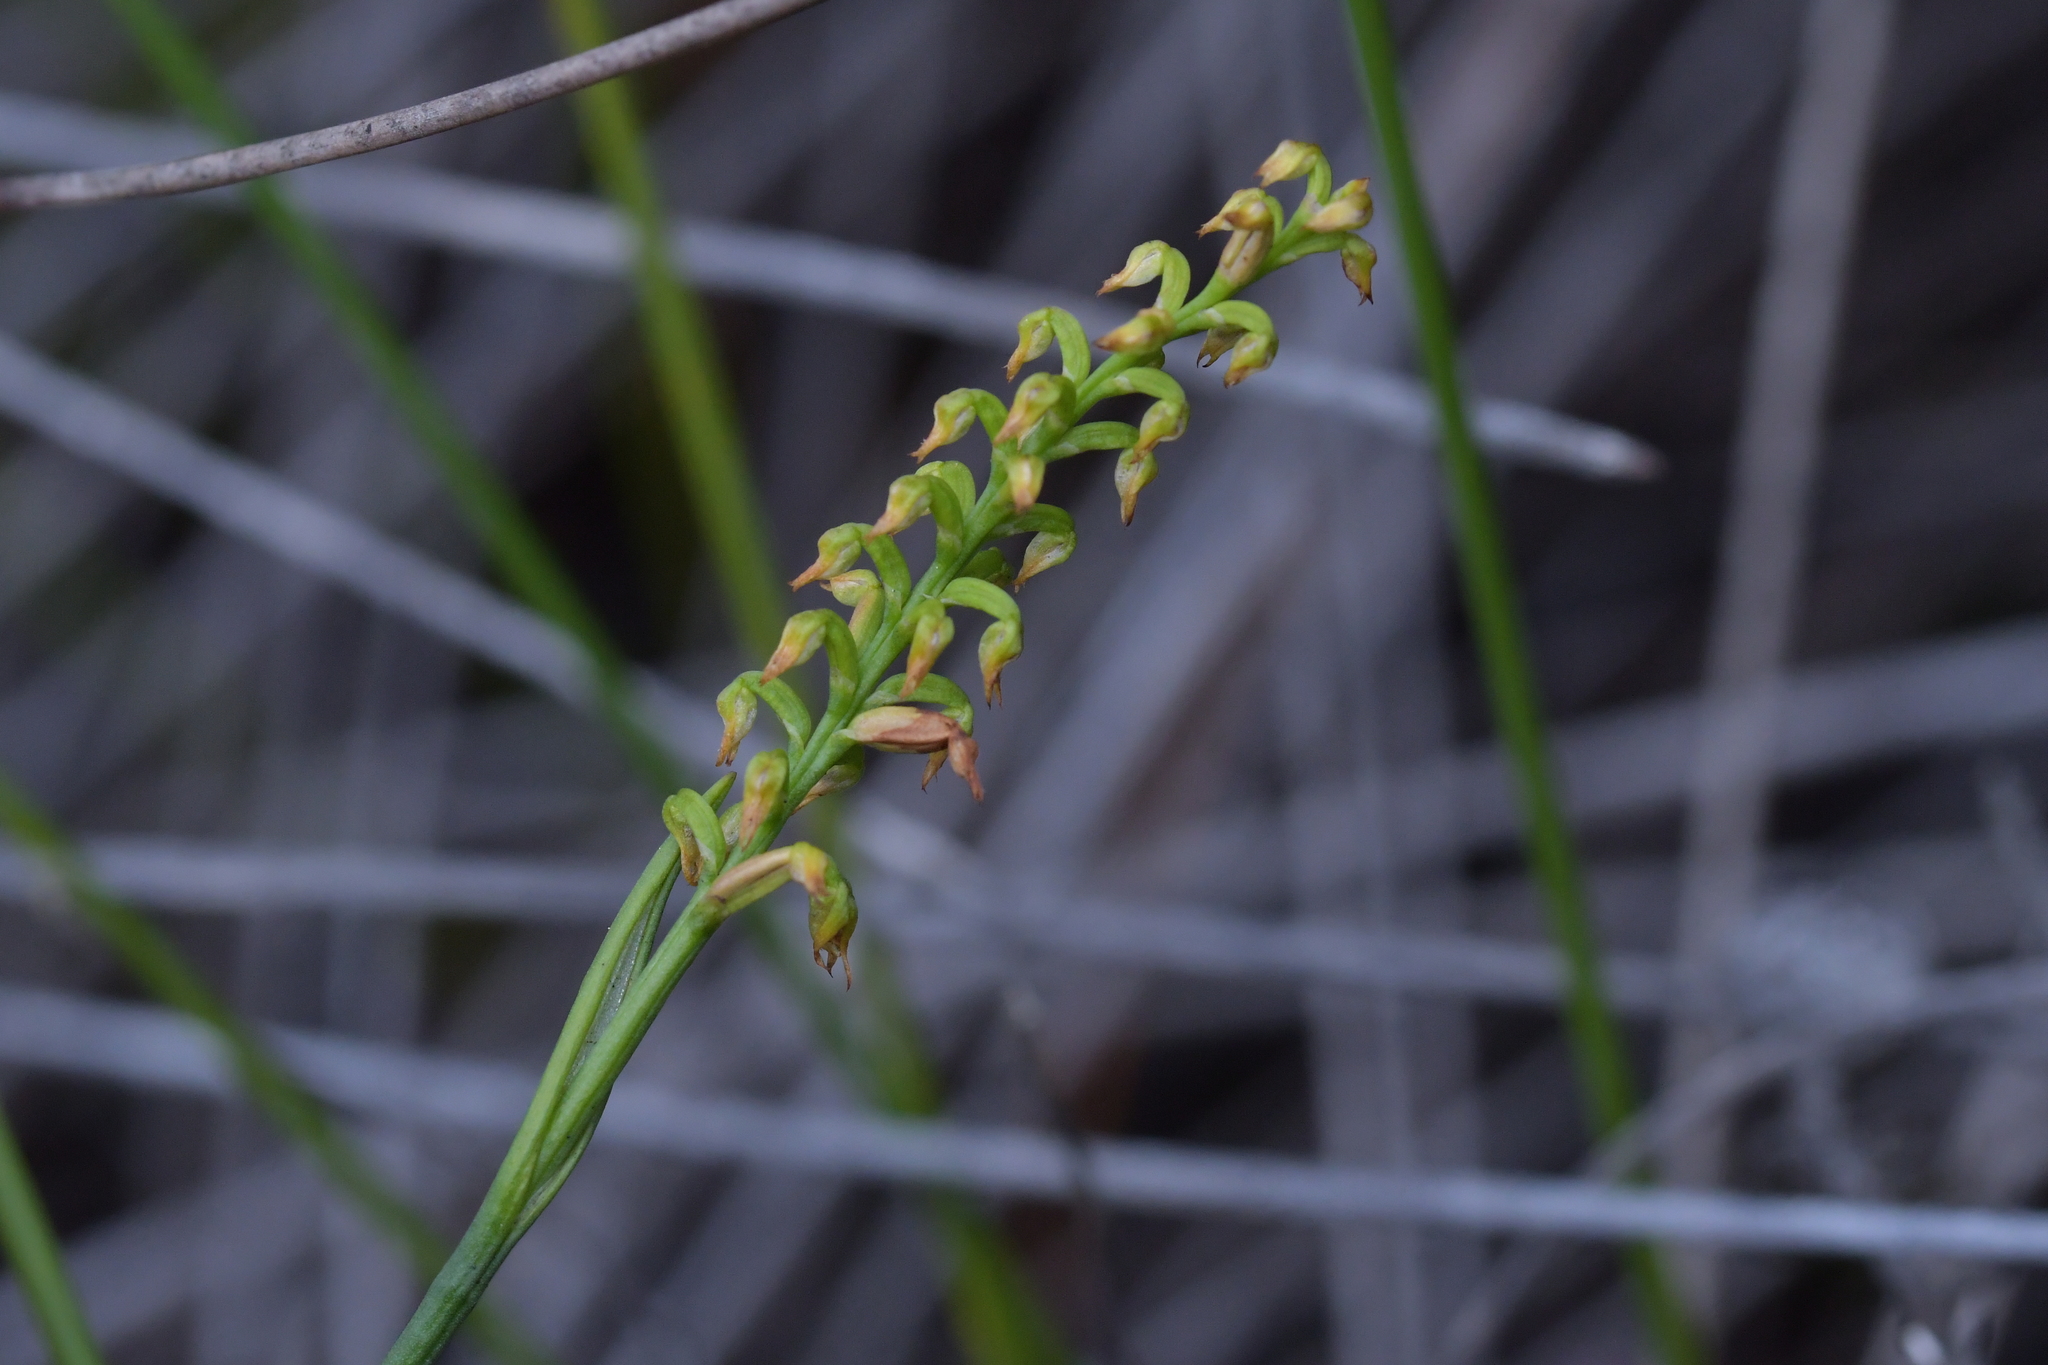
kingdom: Plantae
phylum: Tracheophyta
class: Liliopsida
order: Asparagales
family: Orchidaceae
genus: Genoplesium
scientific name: Genoplesium pumilum
